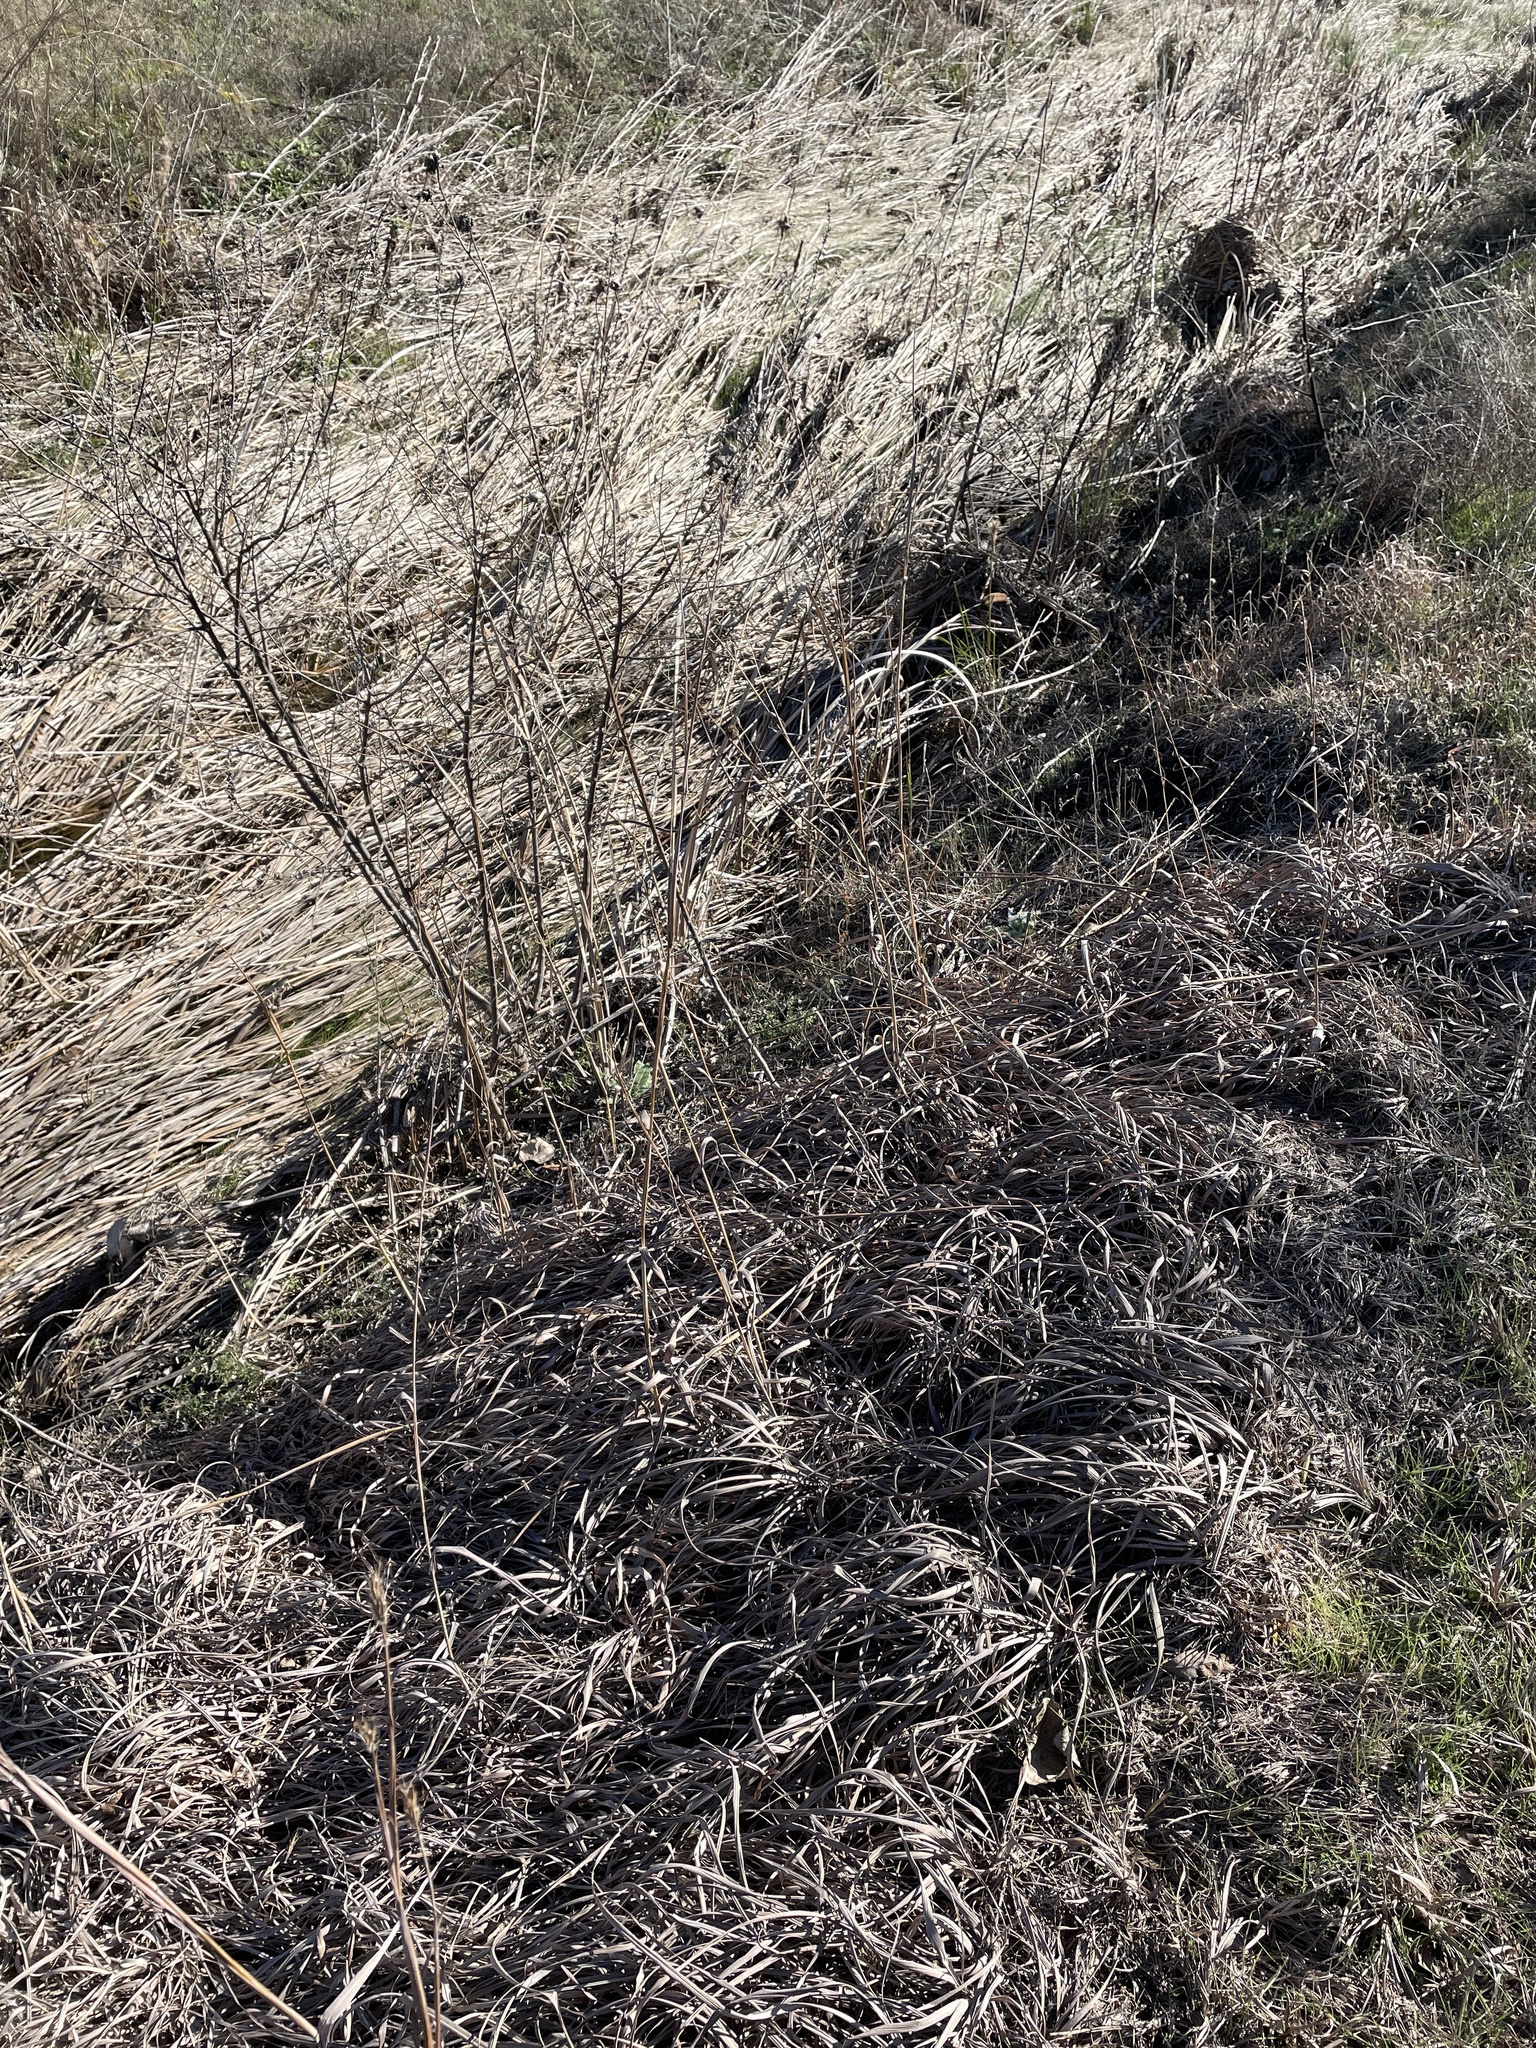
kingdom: Plantae
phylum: Tracheophyta
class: Liliopsida
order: Poales
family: Poaceae
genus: Andropogon
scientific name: Andropogon gerardi
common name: Big bluestem
